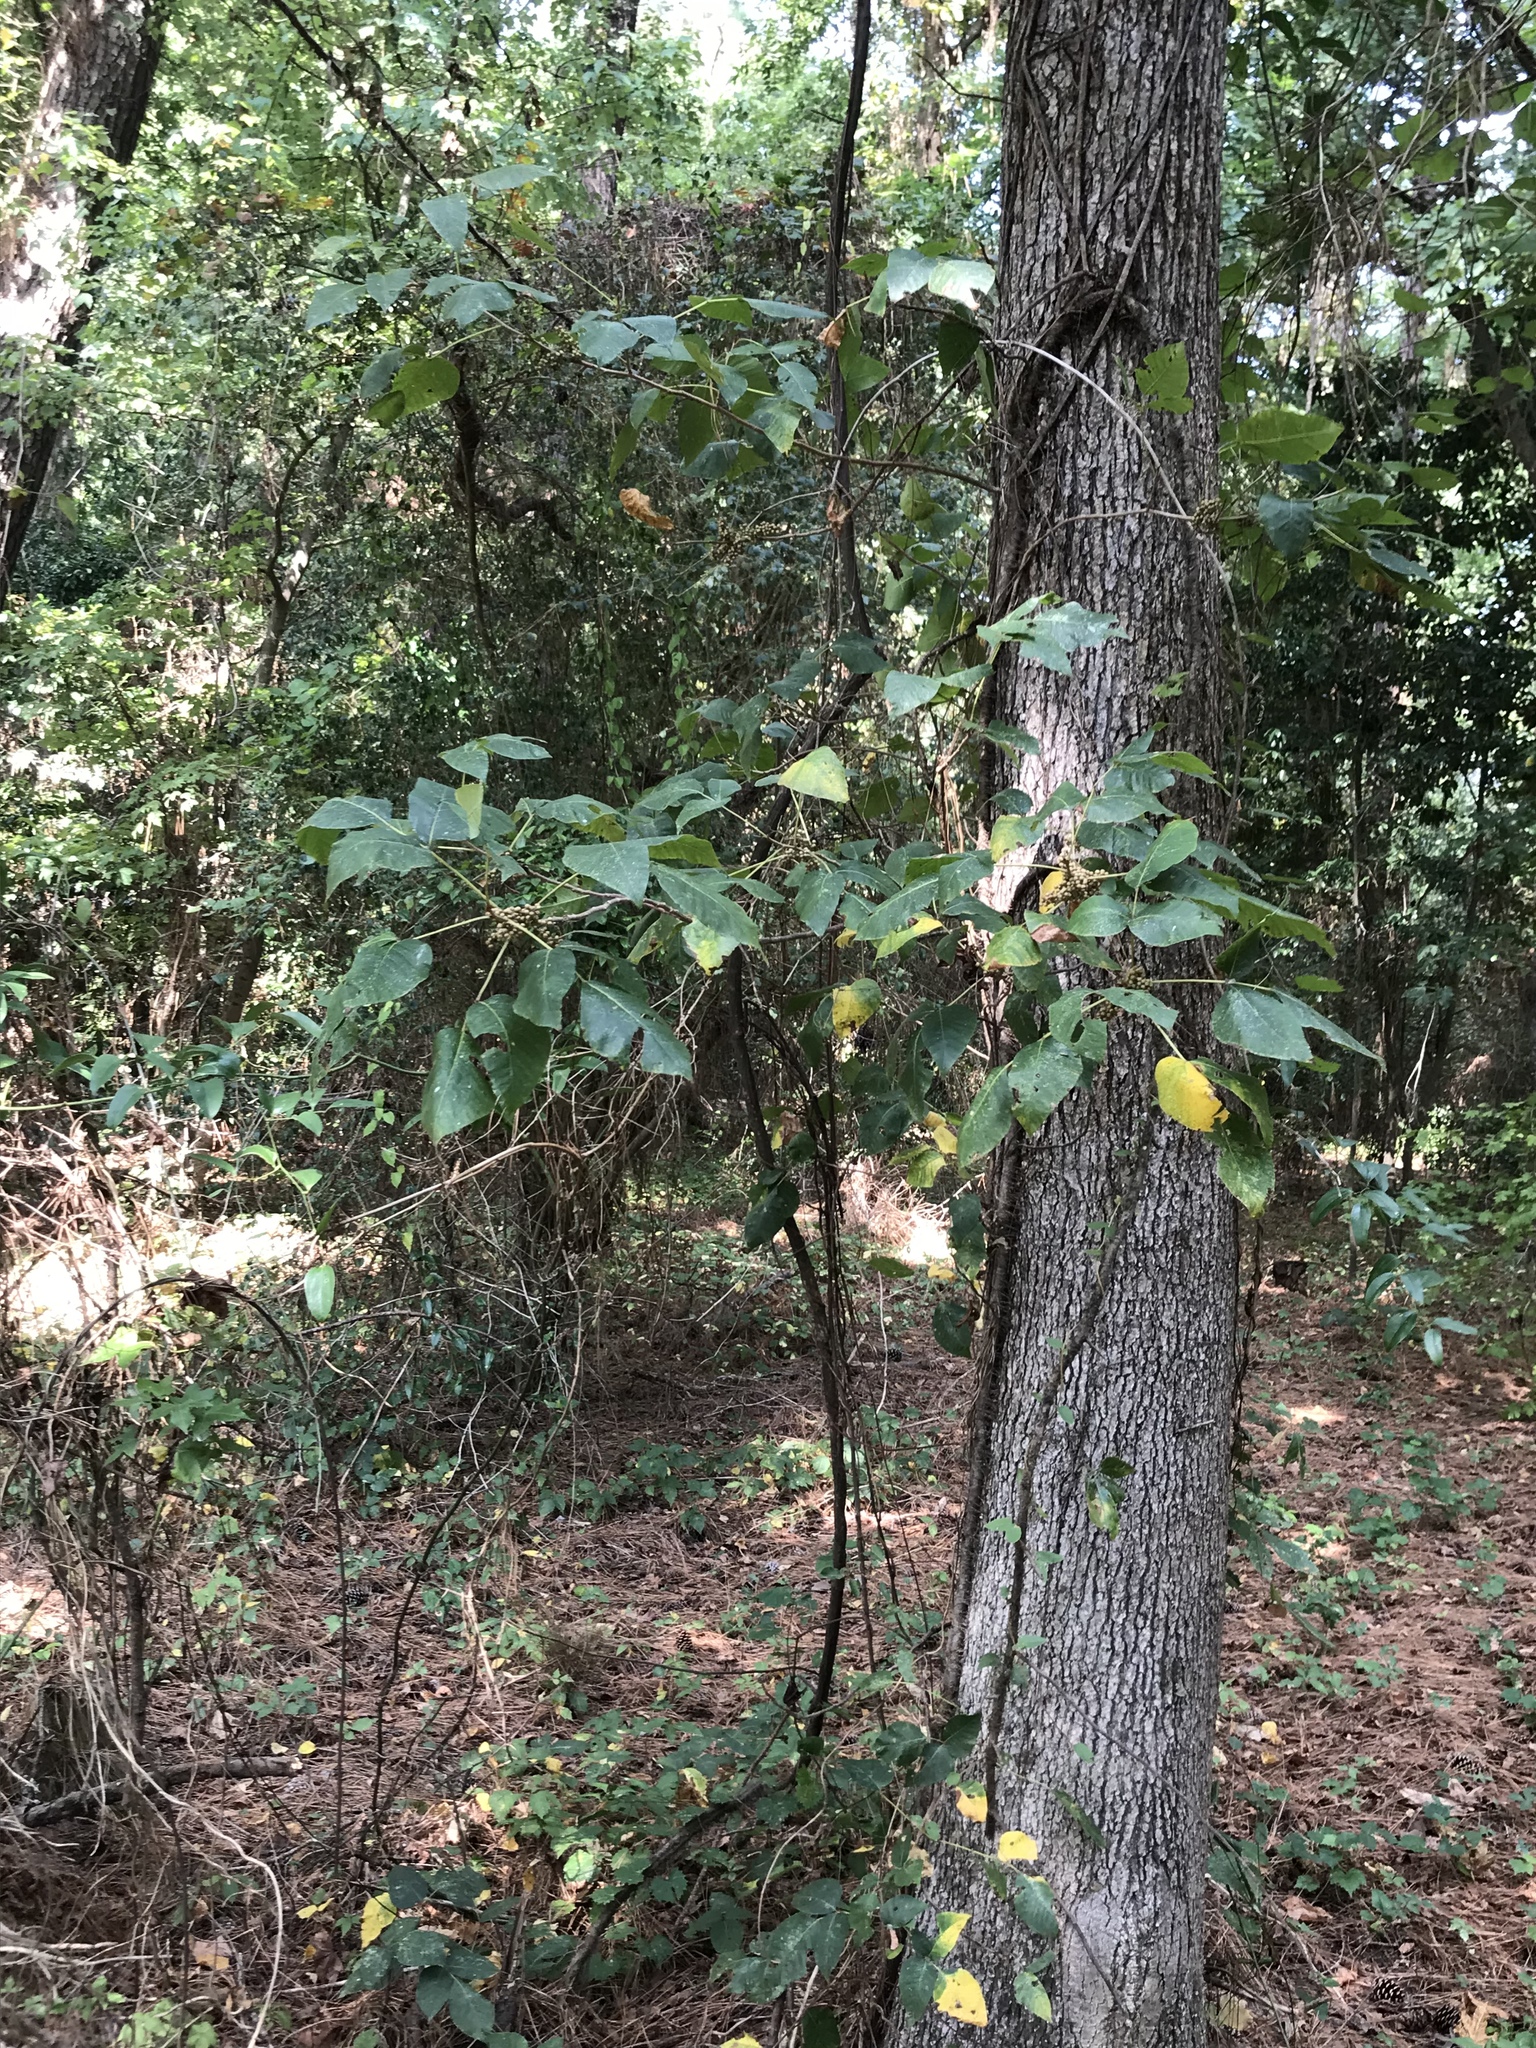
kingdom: Plantae
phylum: Tracheophyta
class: Magnoliopsida
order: Sapindales
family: Anacardiaceae
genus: Toxicodendron
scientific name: Toxicodendron radicans
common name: Poison ivy
